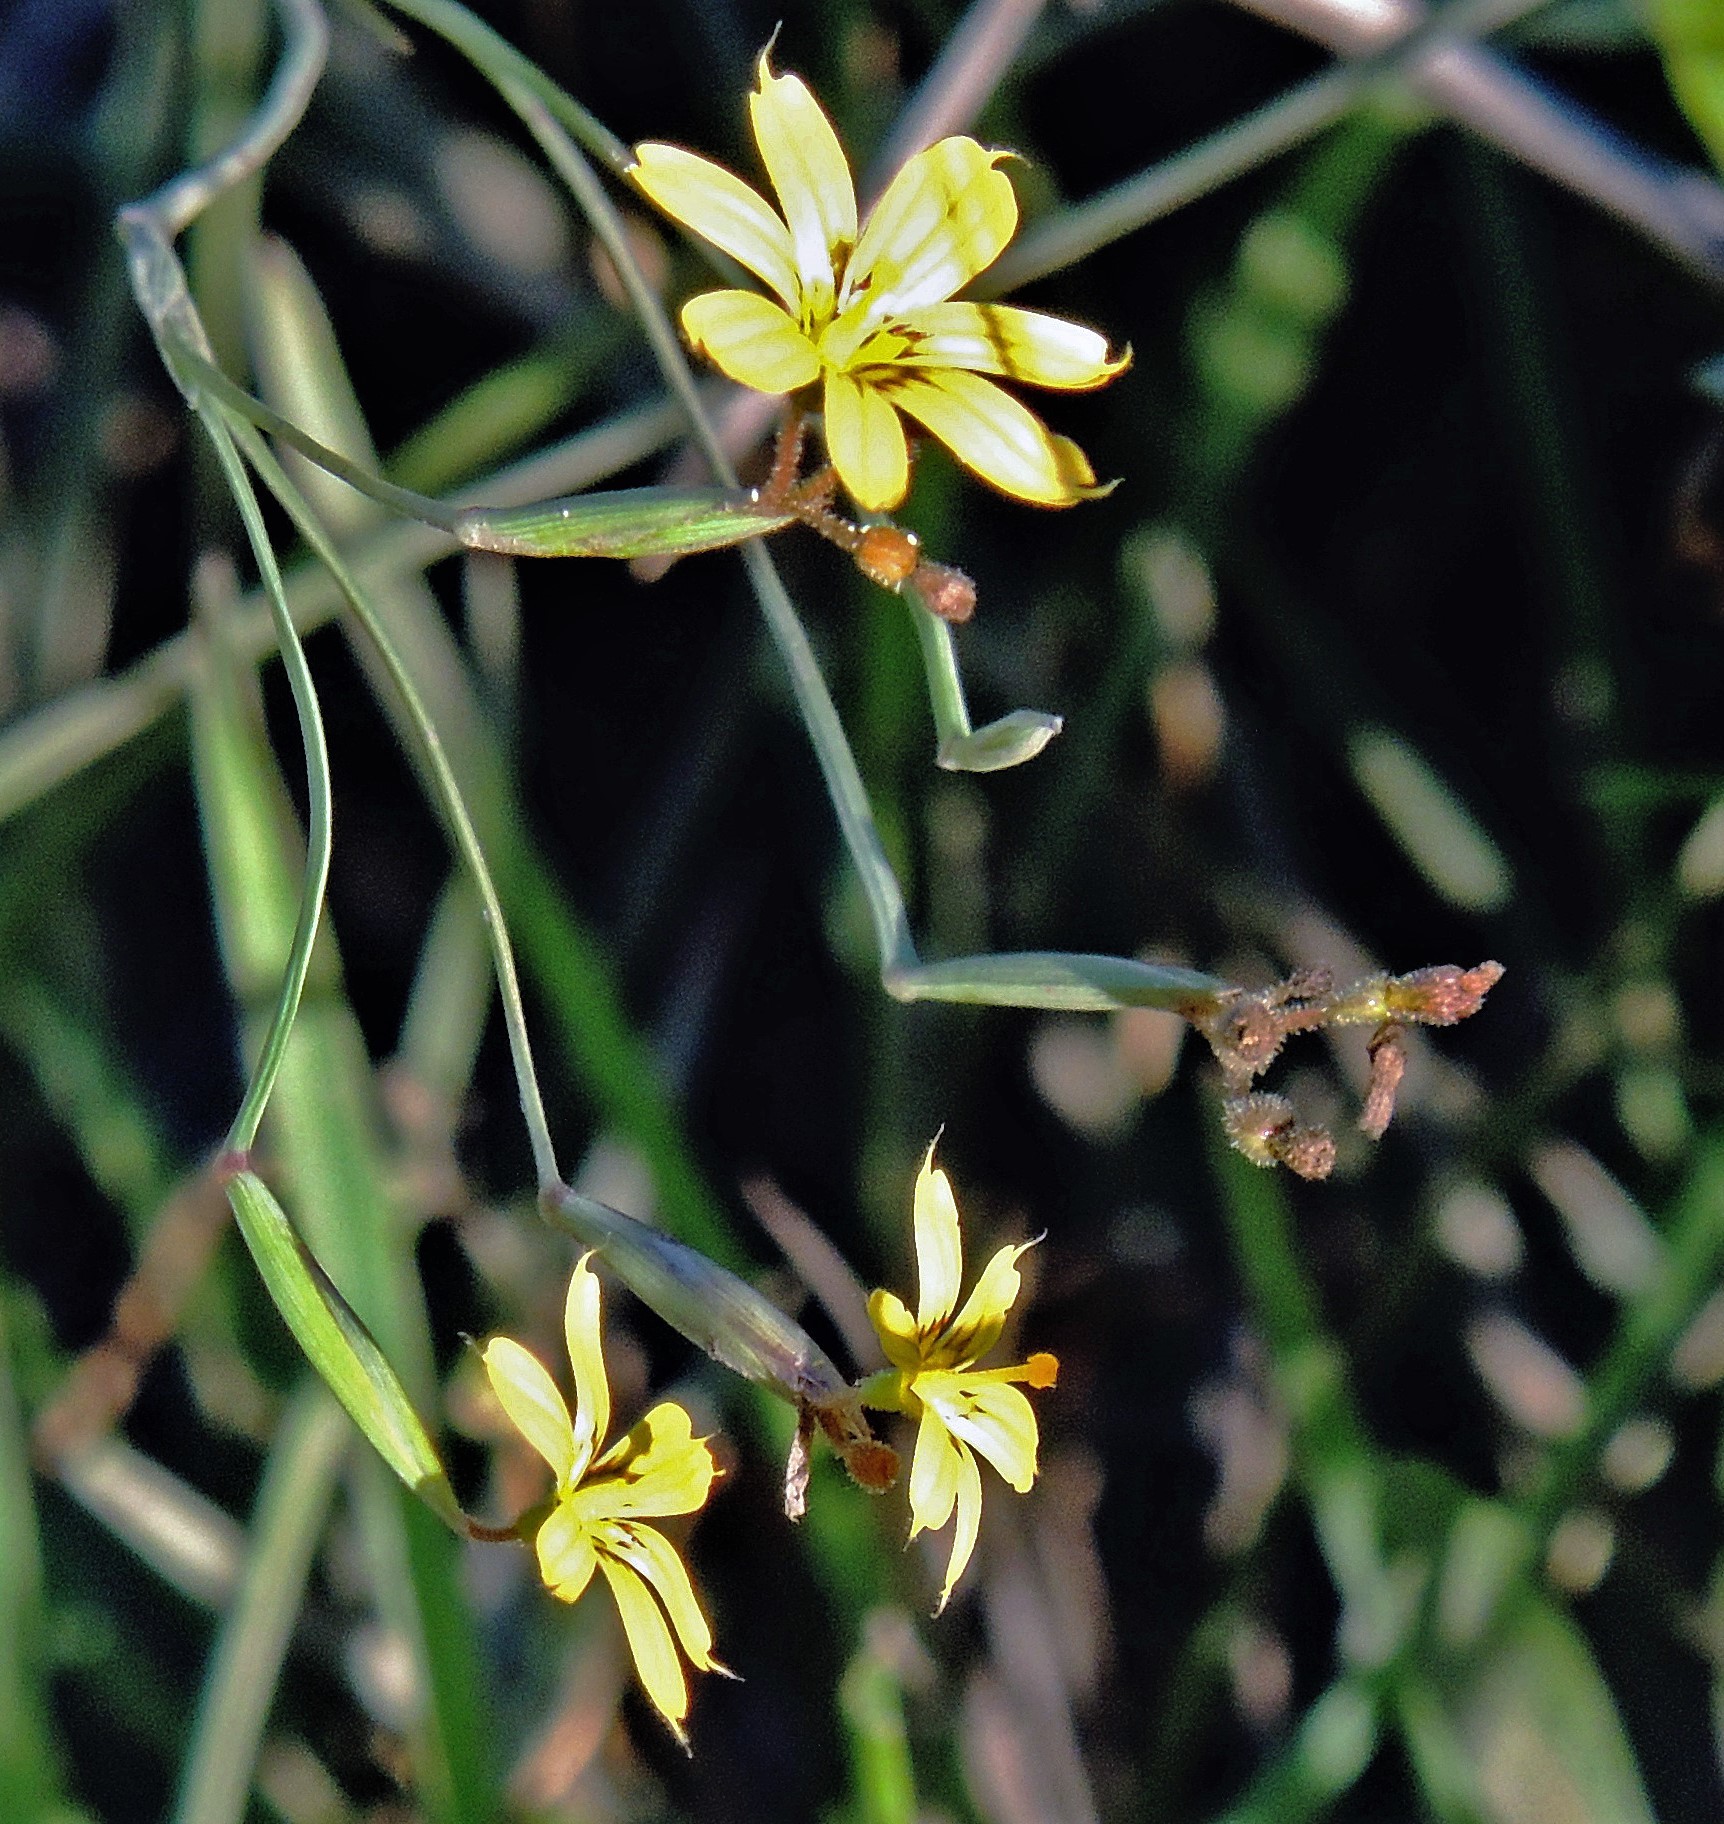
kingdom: Plantae
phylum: Tracheophyta
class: Liliopsida
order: Asparagales
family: Iridaceae
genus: Sisyrinchium
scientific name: Sisyrinchium pachyrhizum
